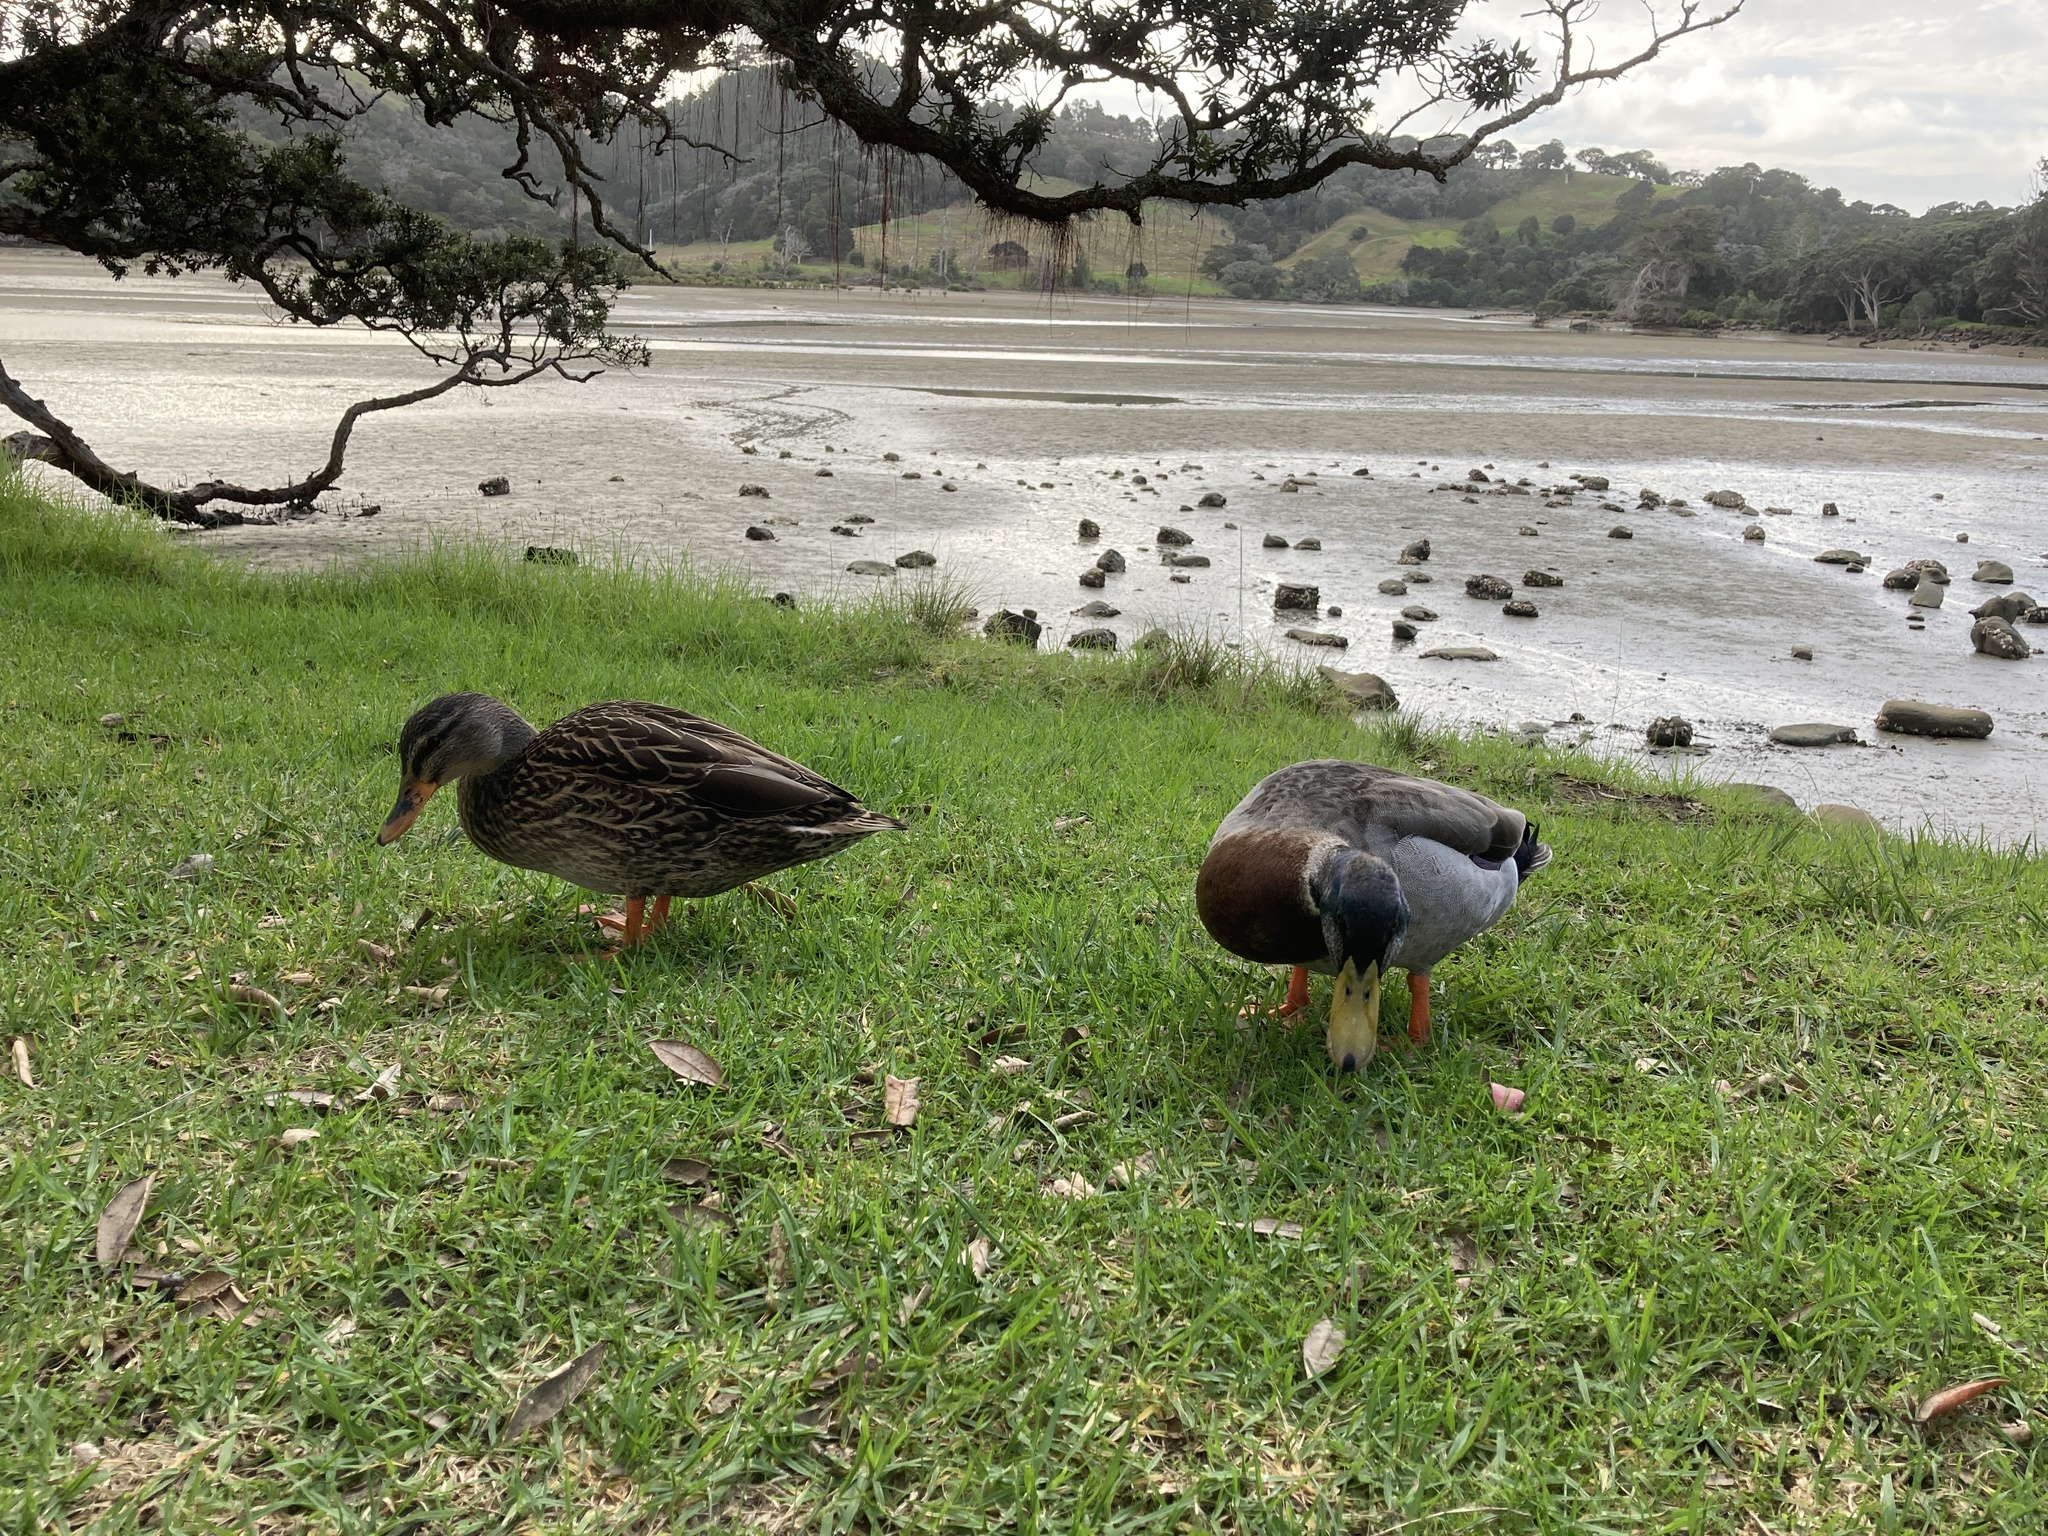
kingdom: Animalia
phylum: Chordata
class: Aves
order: Anseriformes
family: Anatidae
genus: Anas
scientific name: Anas platyrhynchos
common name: Mallard
